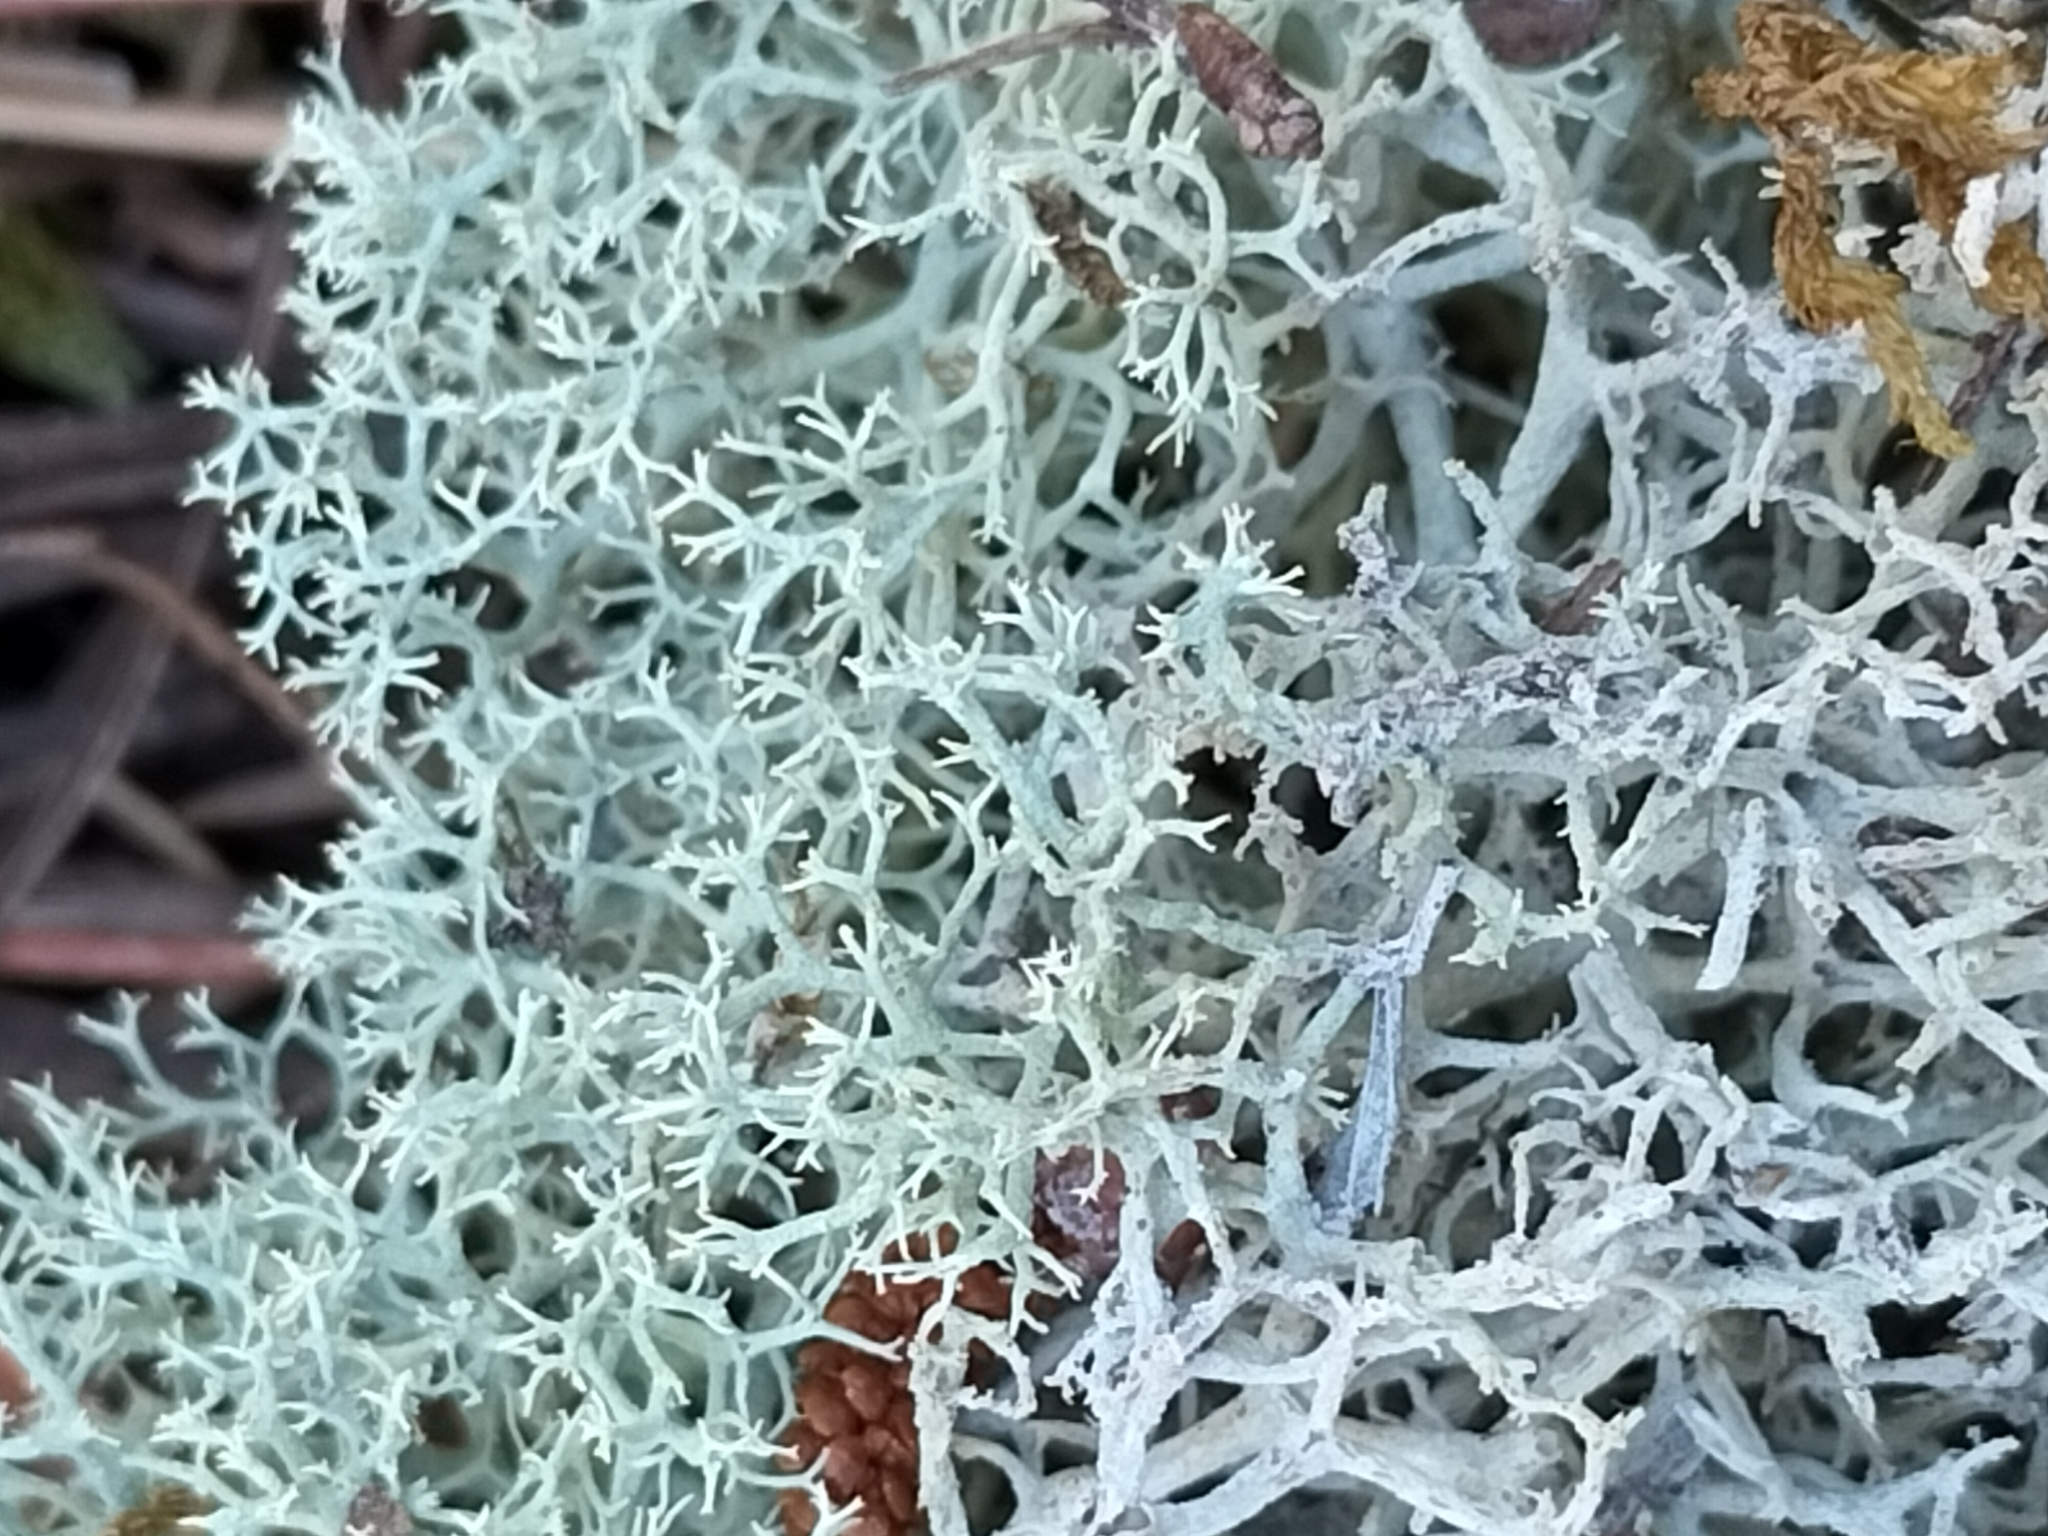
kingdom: Fungi
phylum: Ascomycota
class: Lecanoromycetes
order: Lecanorales
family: Cladoniaceae
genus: Cladonia
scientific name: Cladonia confusa
